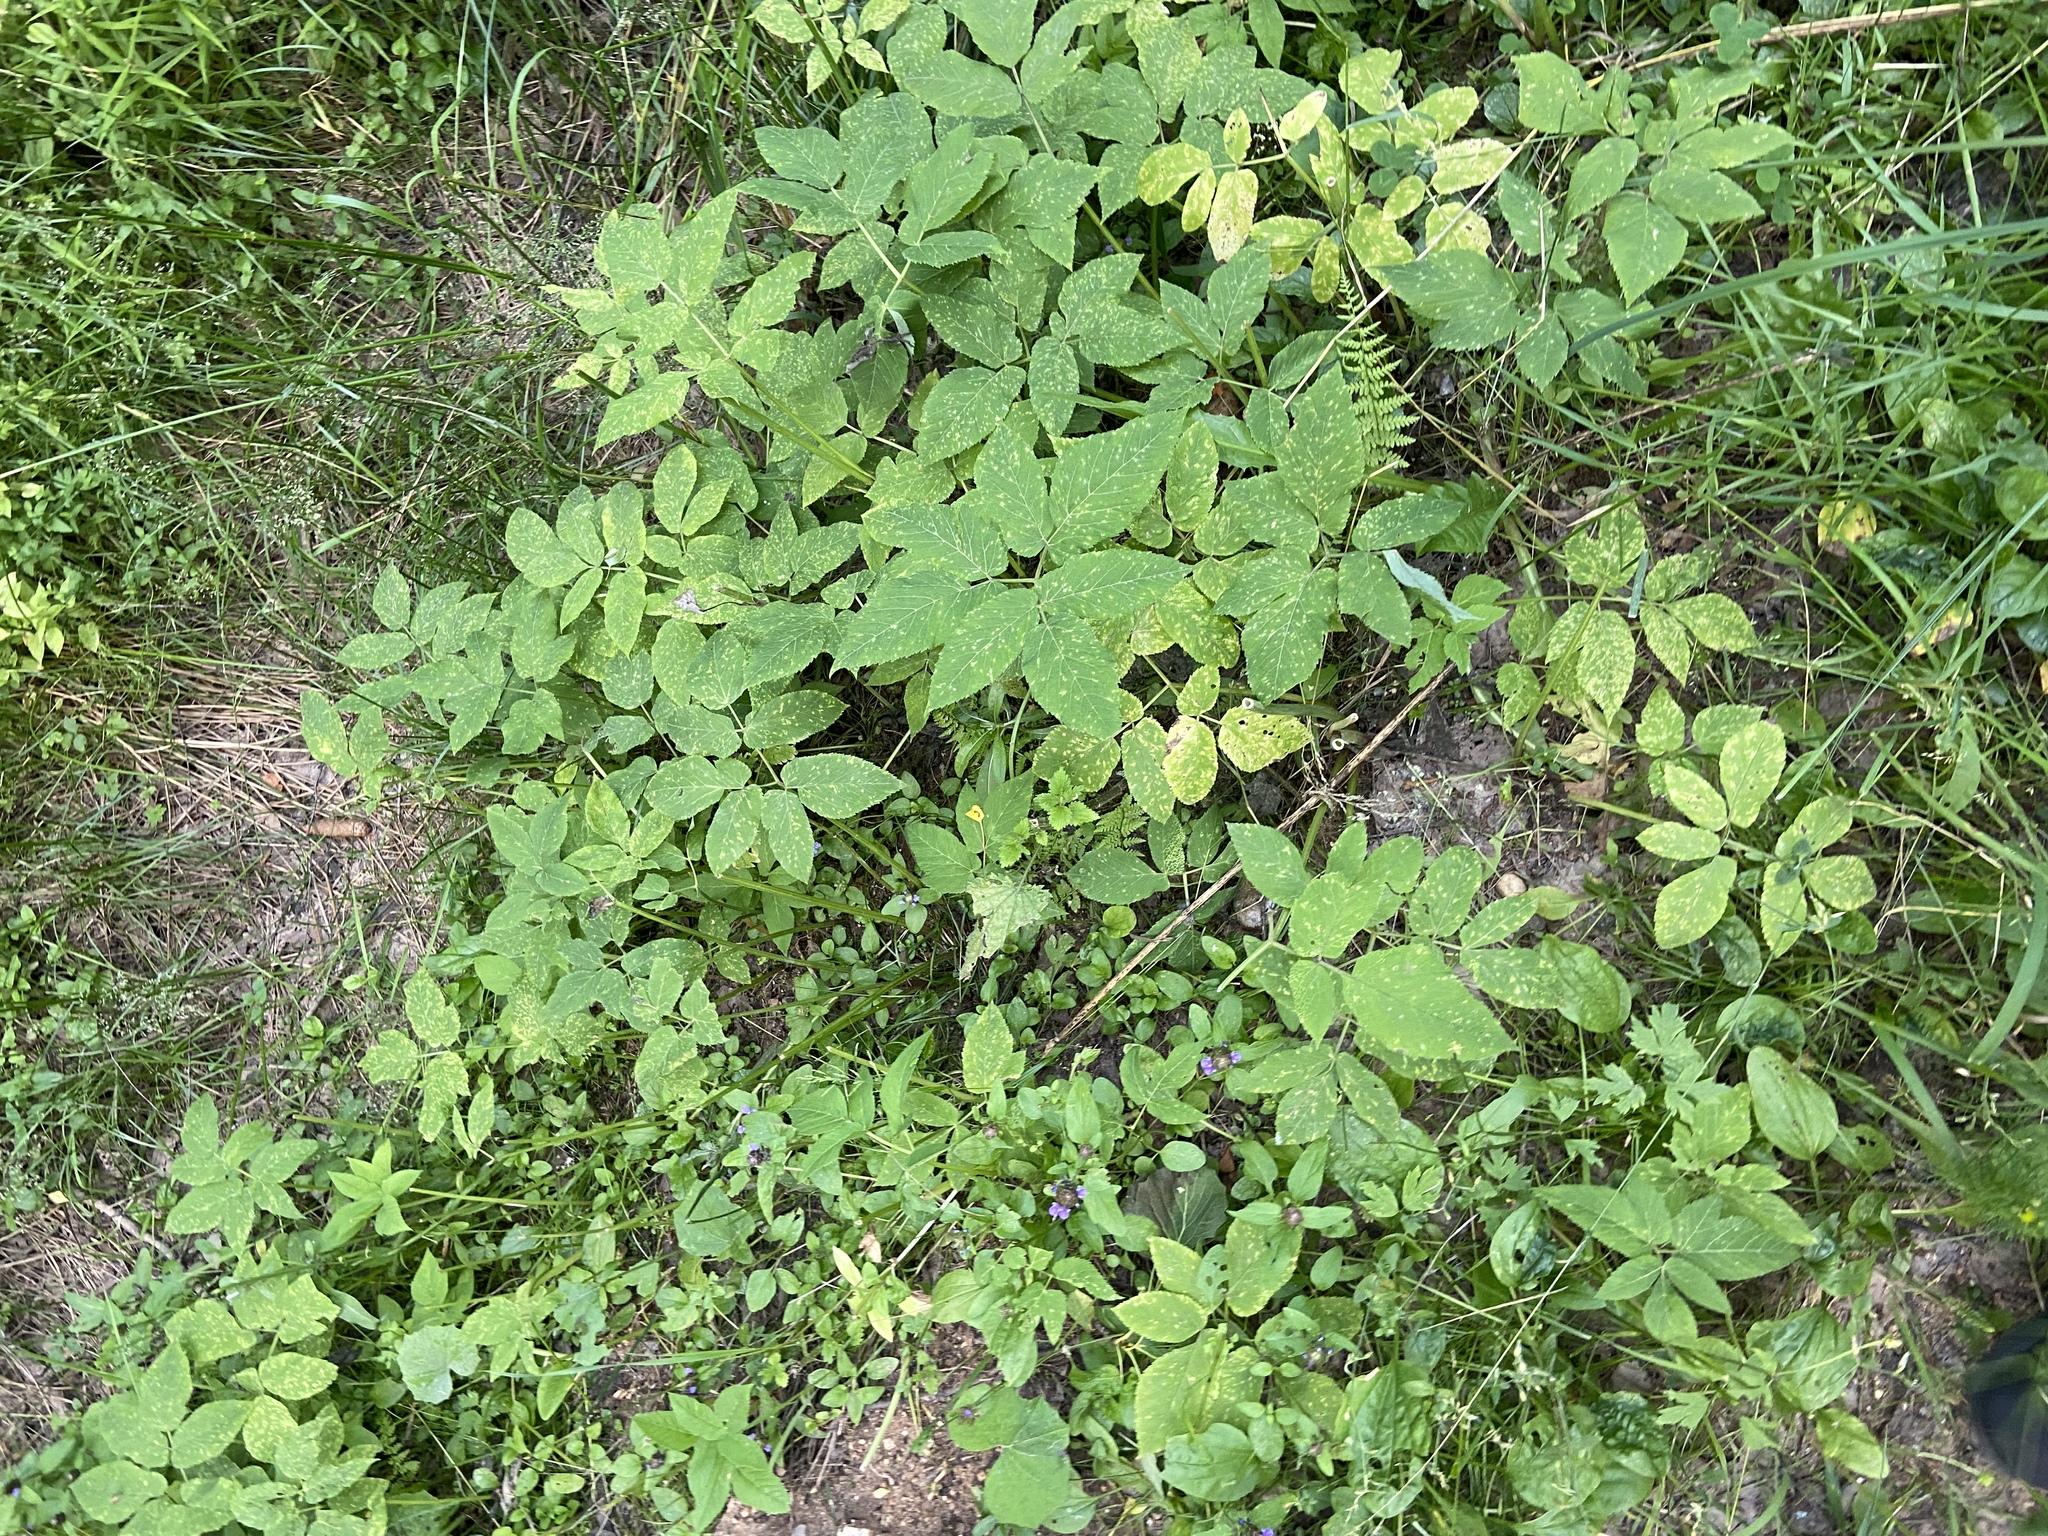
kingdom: Plantae
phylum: Tracheophyta
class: Magnoliopsida
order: Apiales
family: Apiaceae
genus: Aegopodium
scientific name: Aegopodium podagraria
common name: Ground-elder
